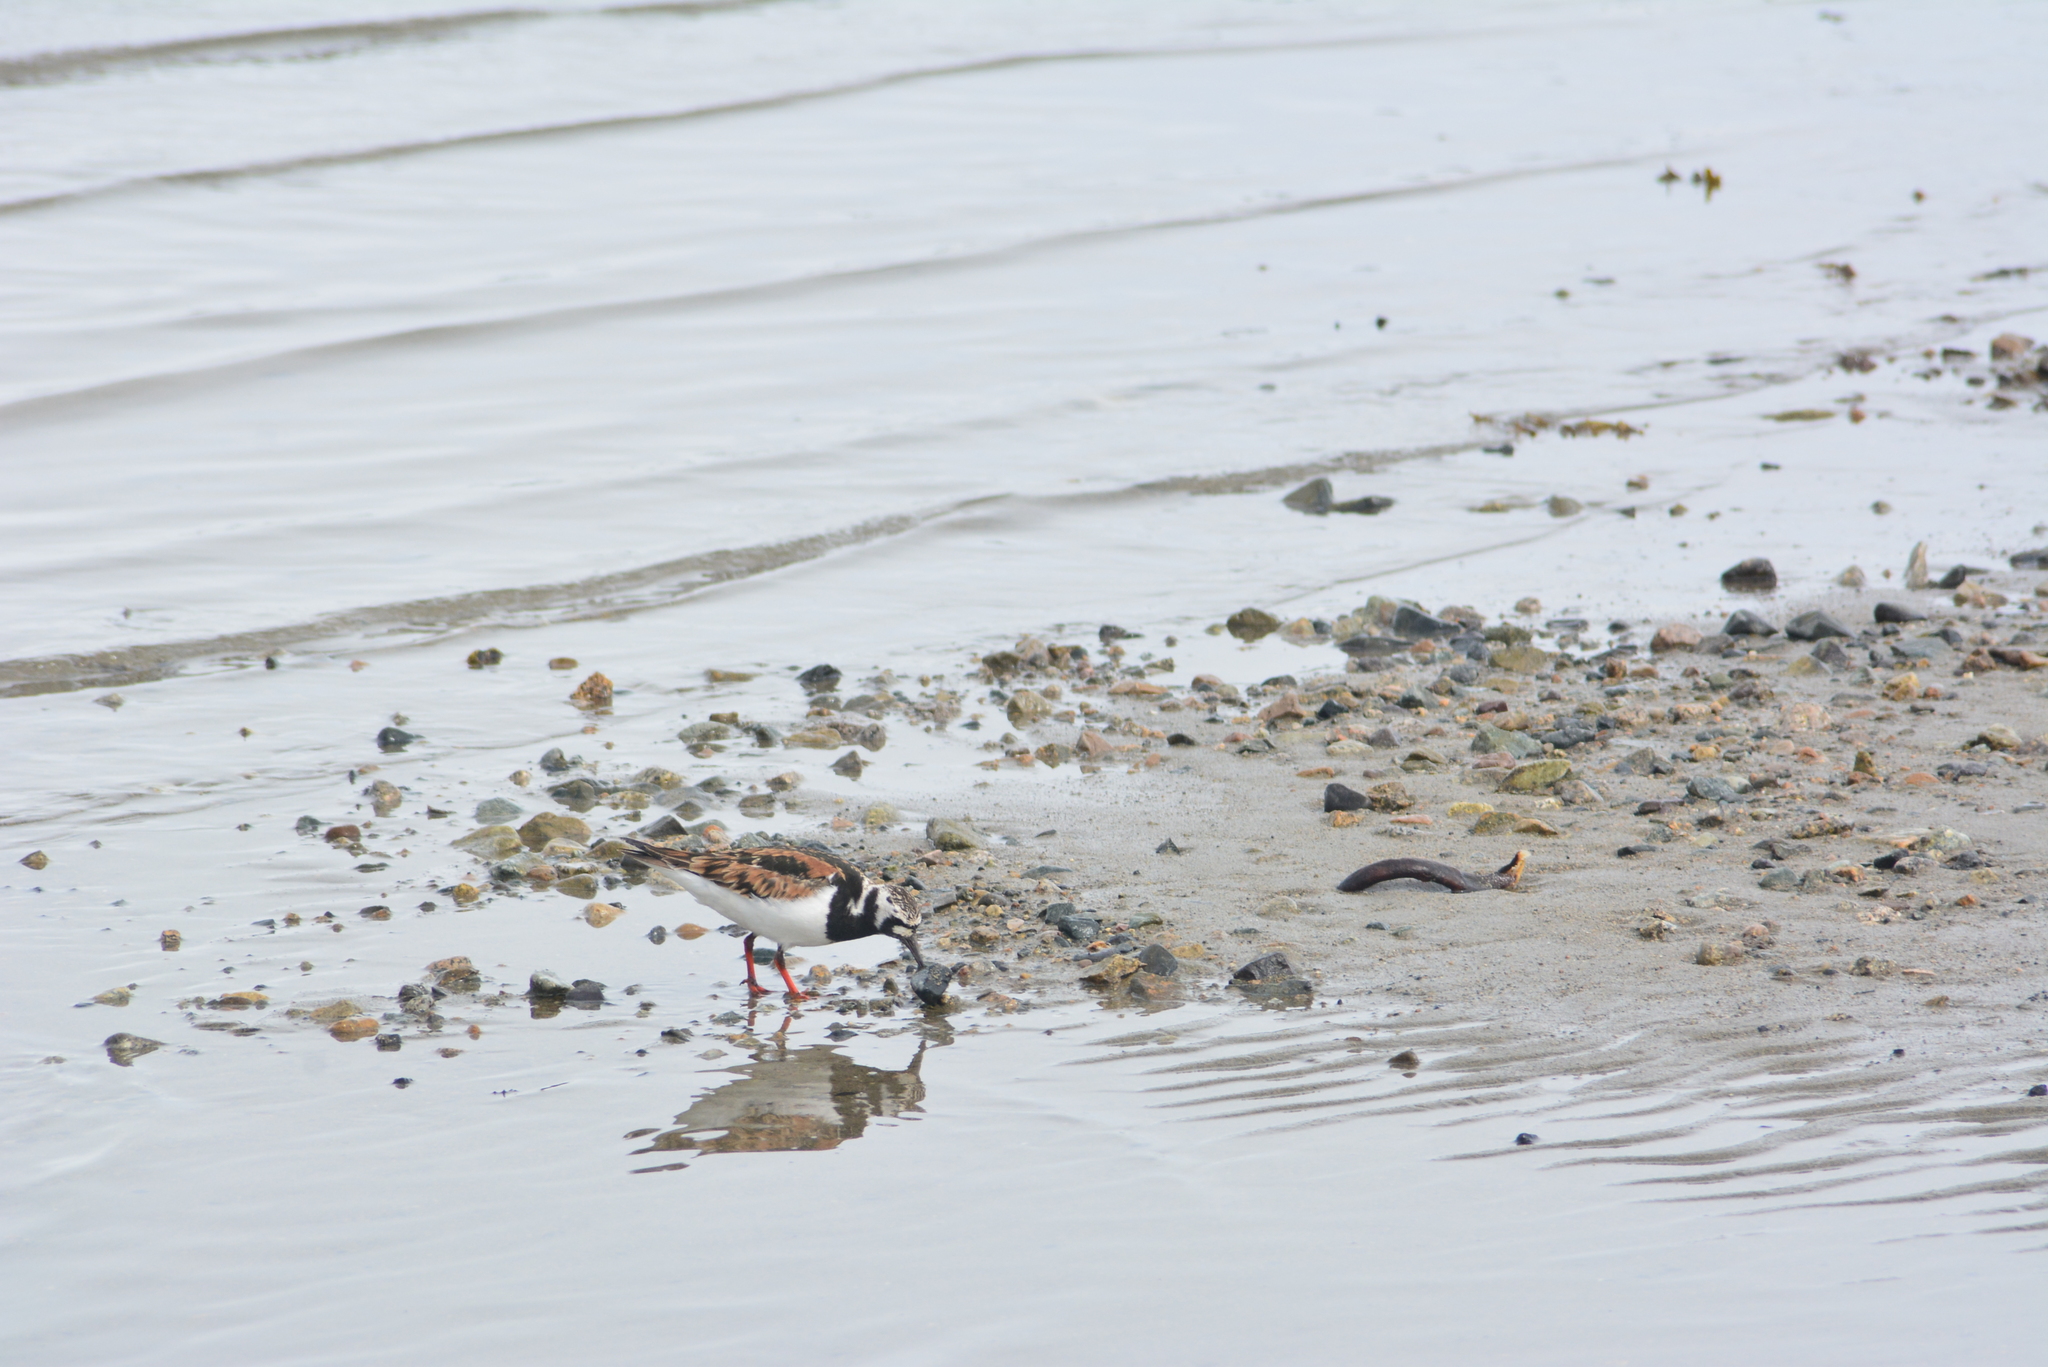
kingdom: Animalia
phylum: Chordata
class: Aves
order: Charadriiformes
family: Scolopacidae
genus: Arenaria
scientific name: Arenaria interpres
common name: Ruddy turnstone
